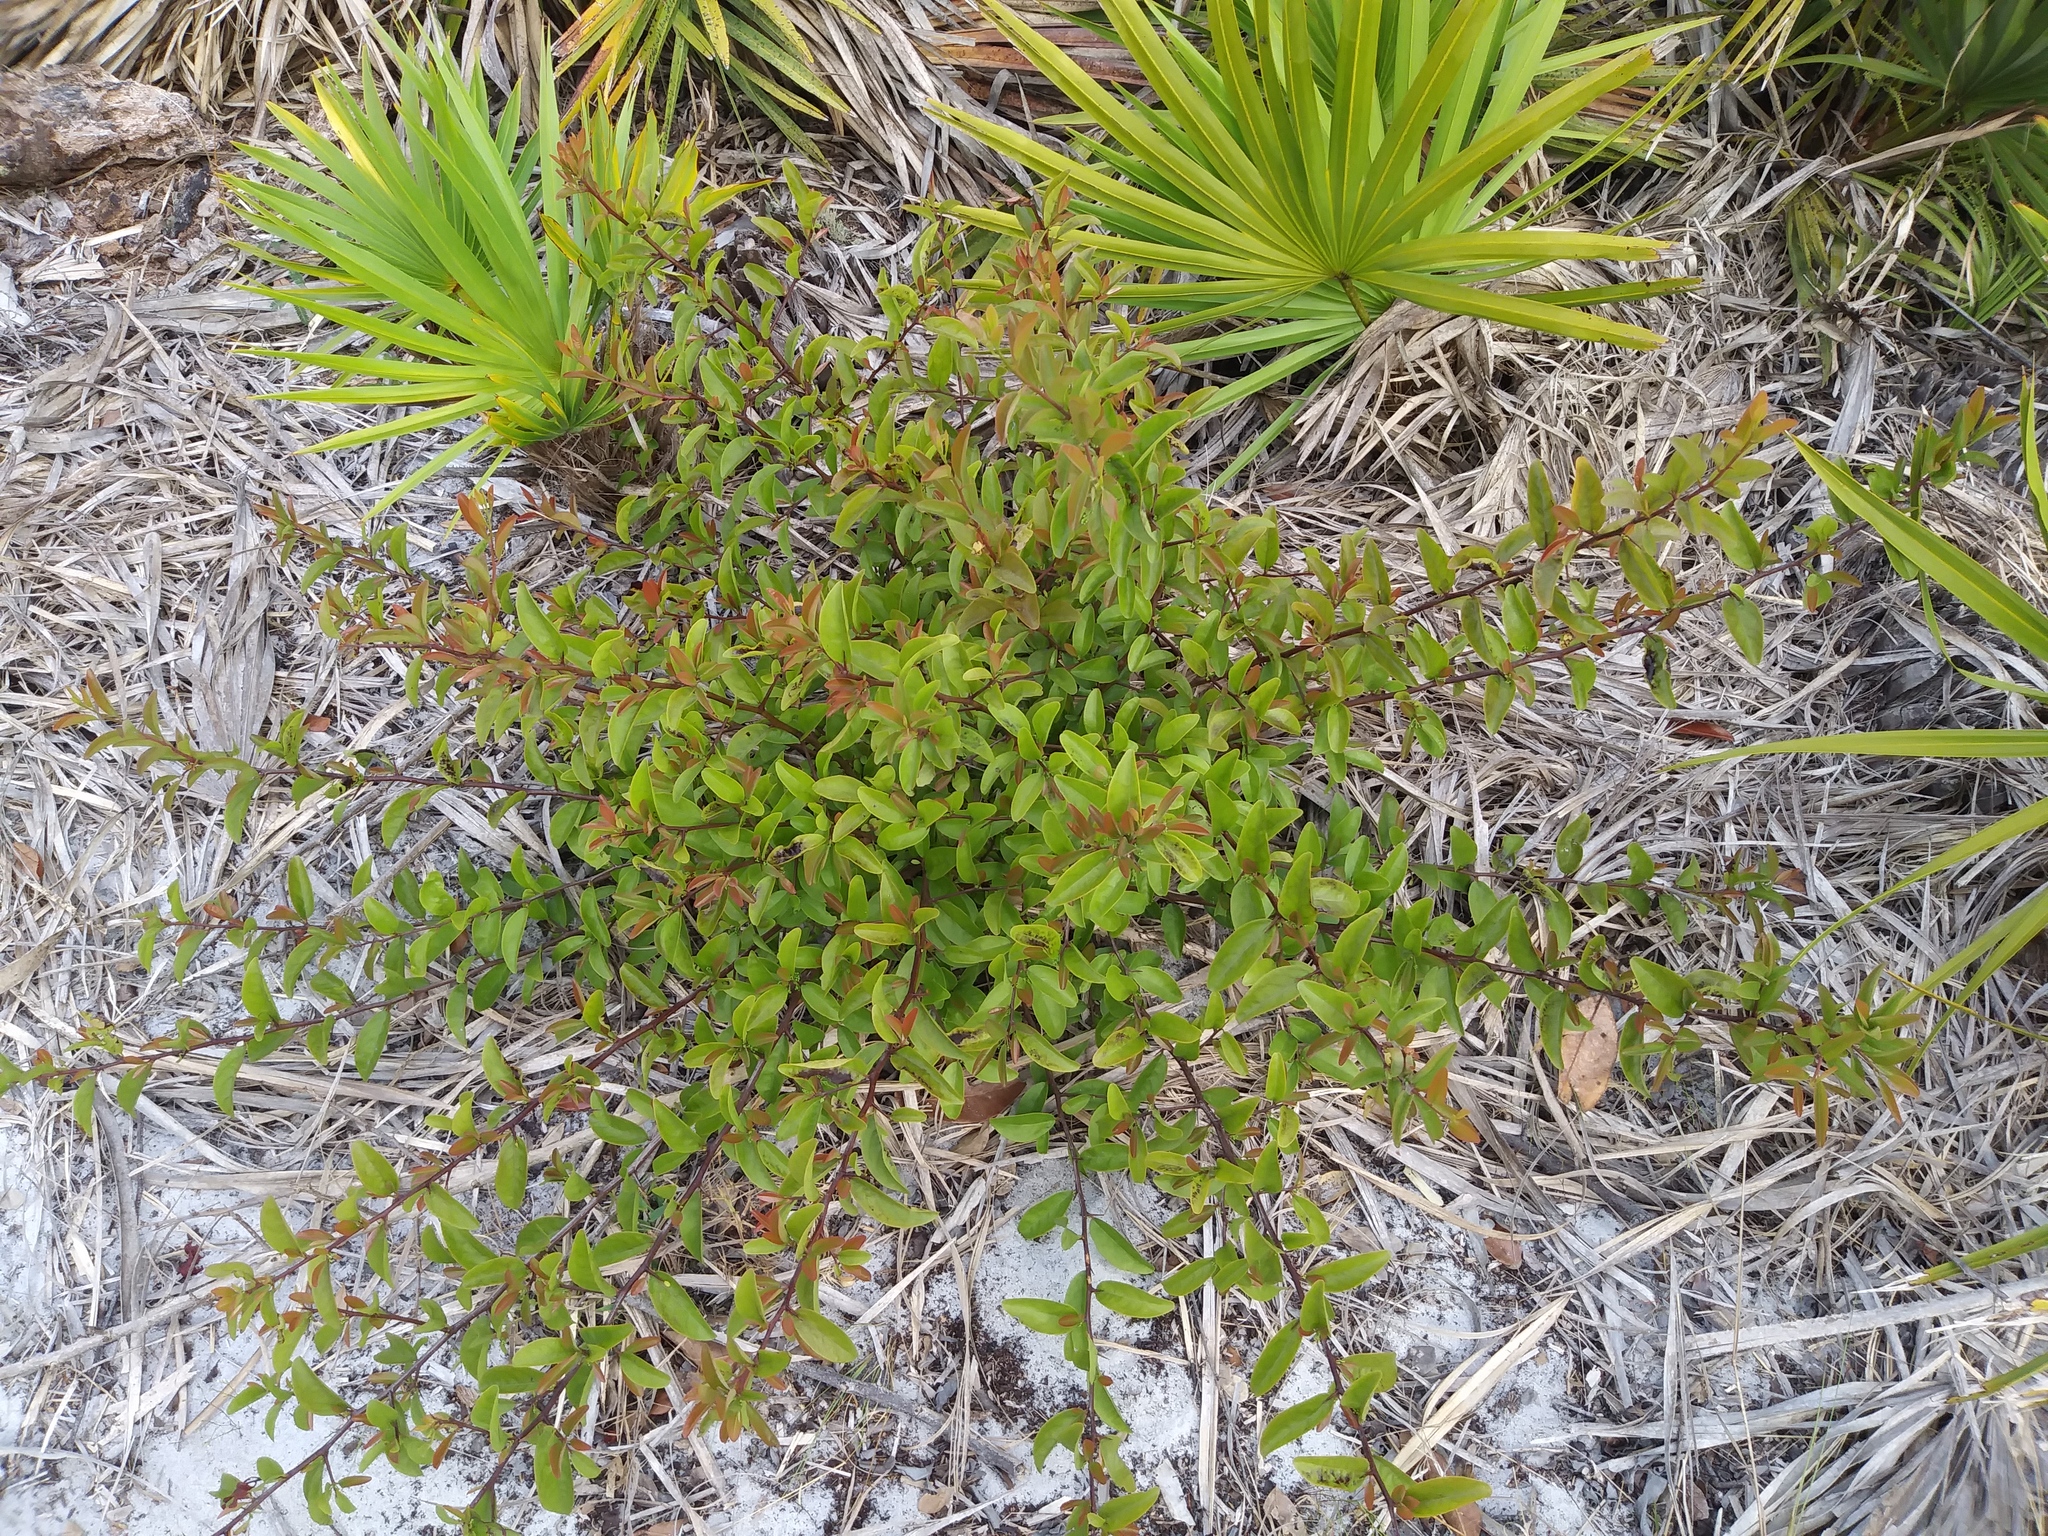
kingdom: Plantae
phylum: Tracheophyta
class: Magnoliopsida
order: Santalales
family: Ximeniaceae
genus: Ximenia
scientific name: Ximenia americana
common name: Tallowwood
